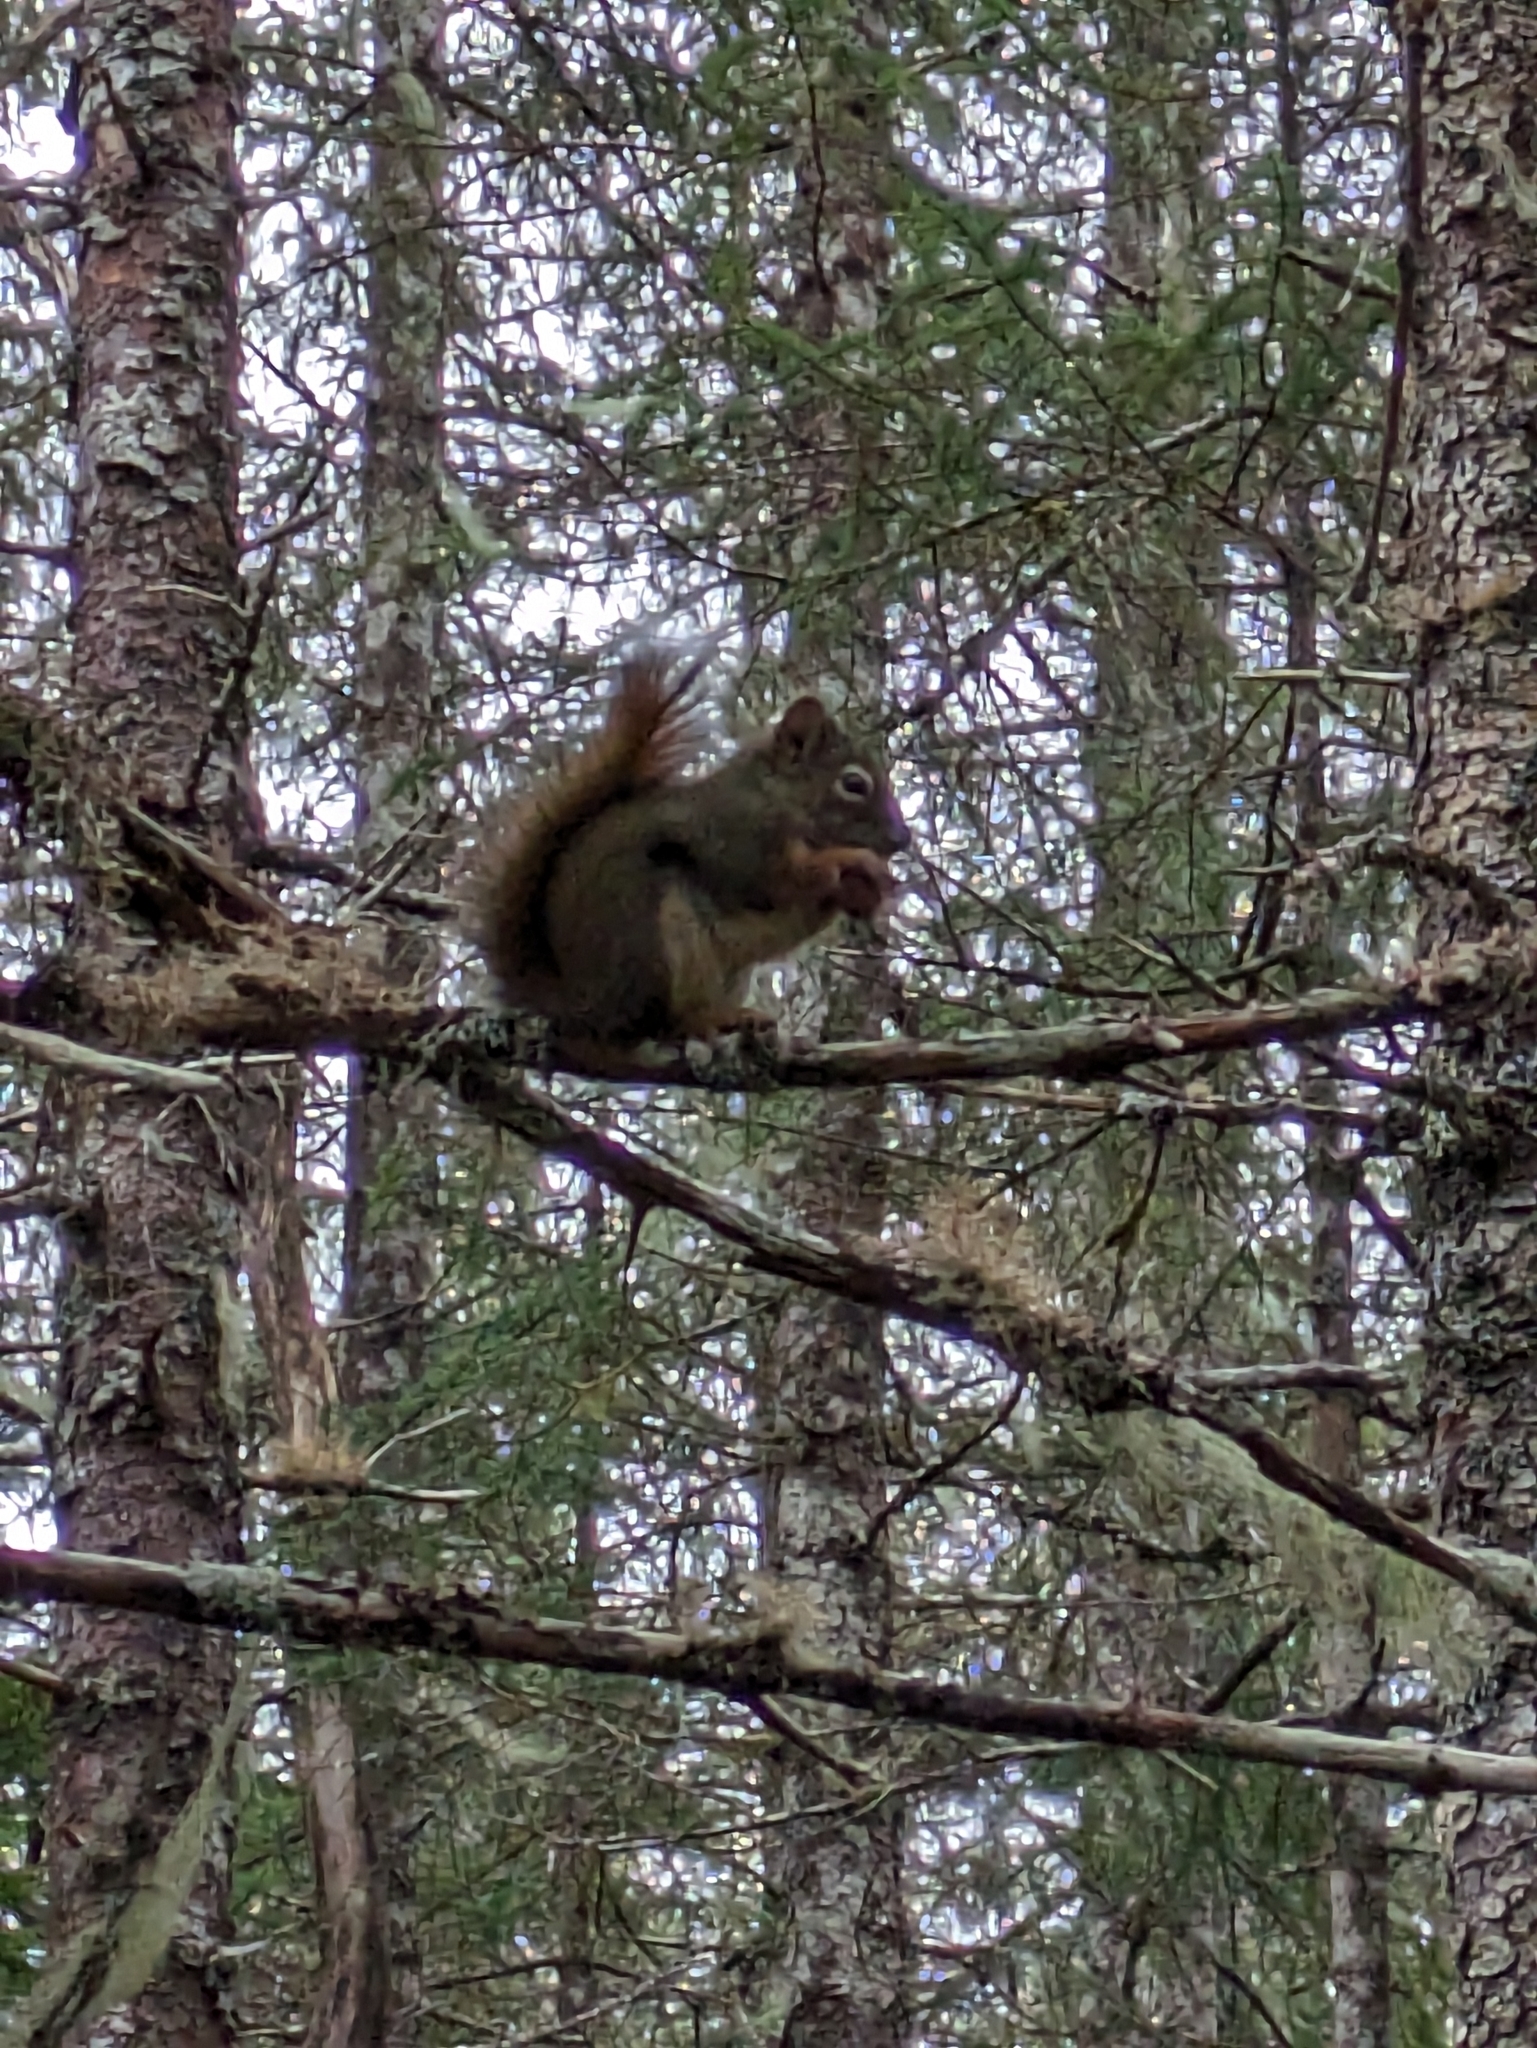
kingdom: Animalia
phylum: Chordata
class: Mammalia
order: Rodentia
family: Sciuridae
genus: Tamiasciurus
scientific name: Tamiasciurus hudsonicus
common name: Red squirrel
